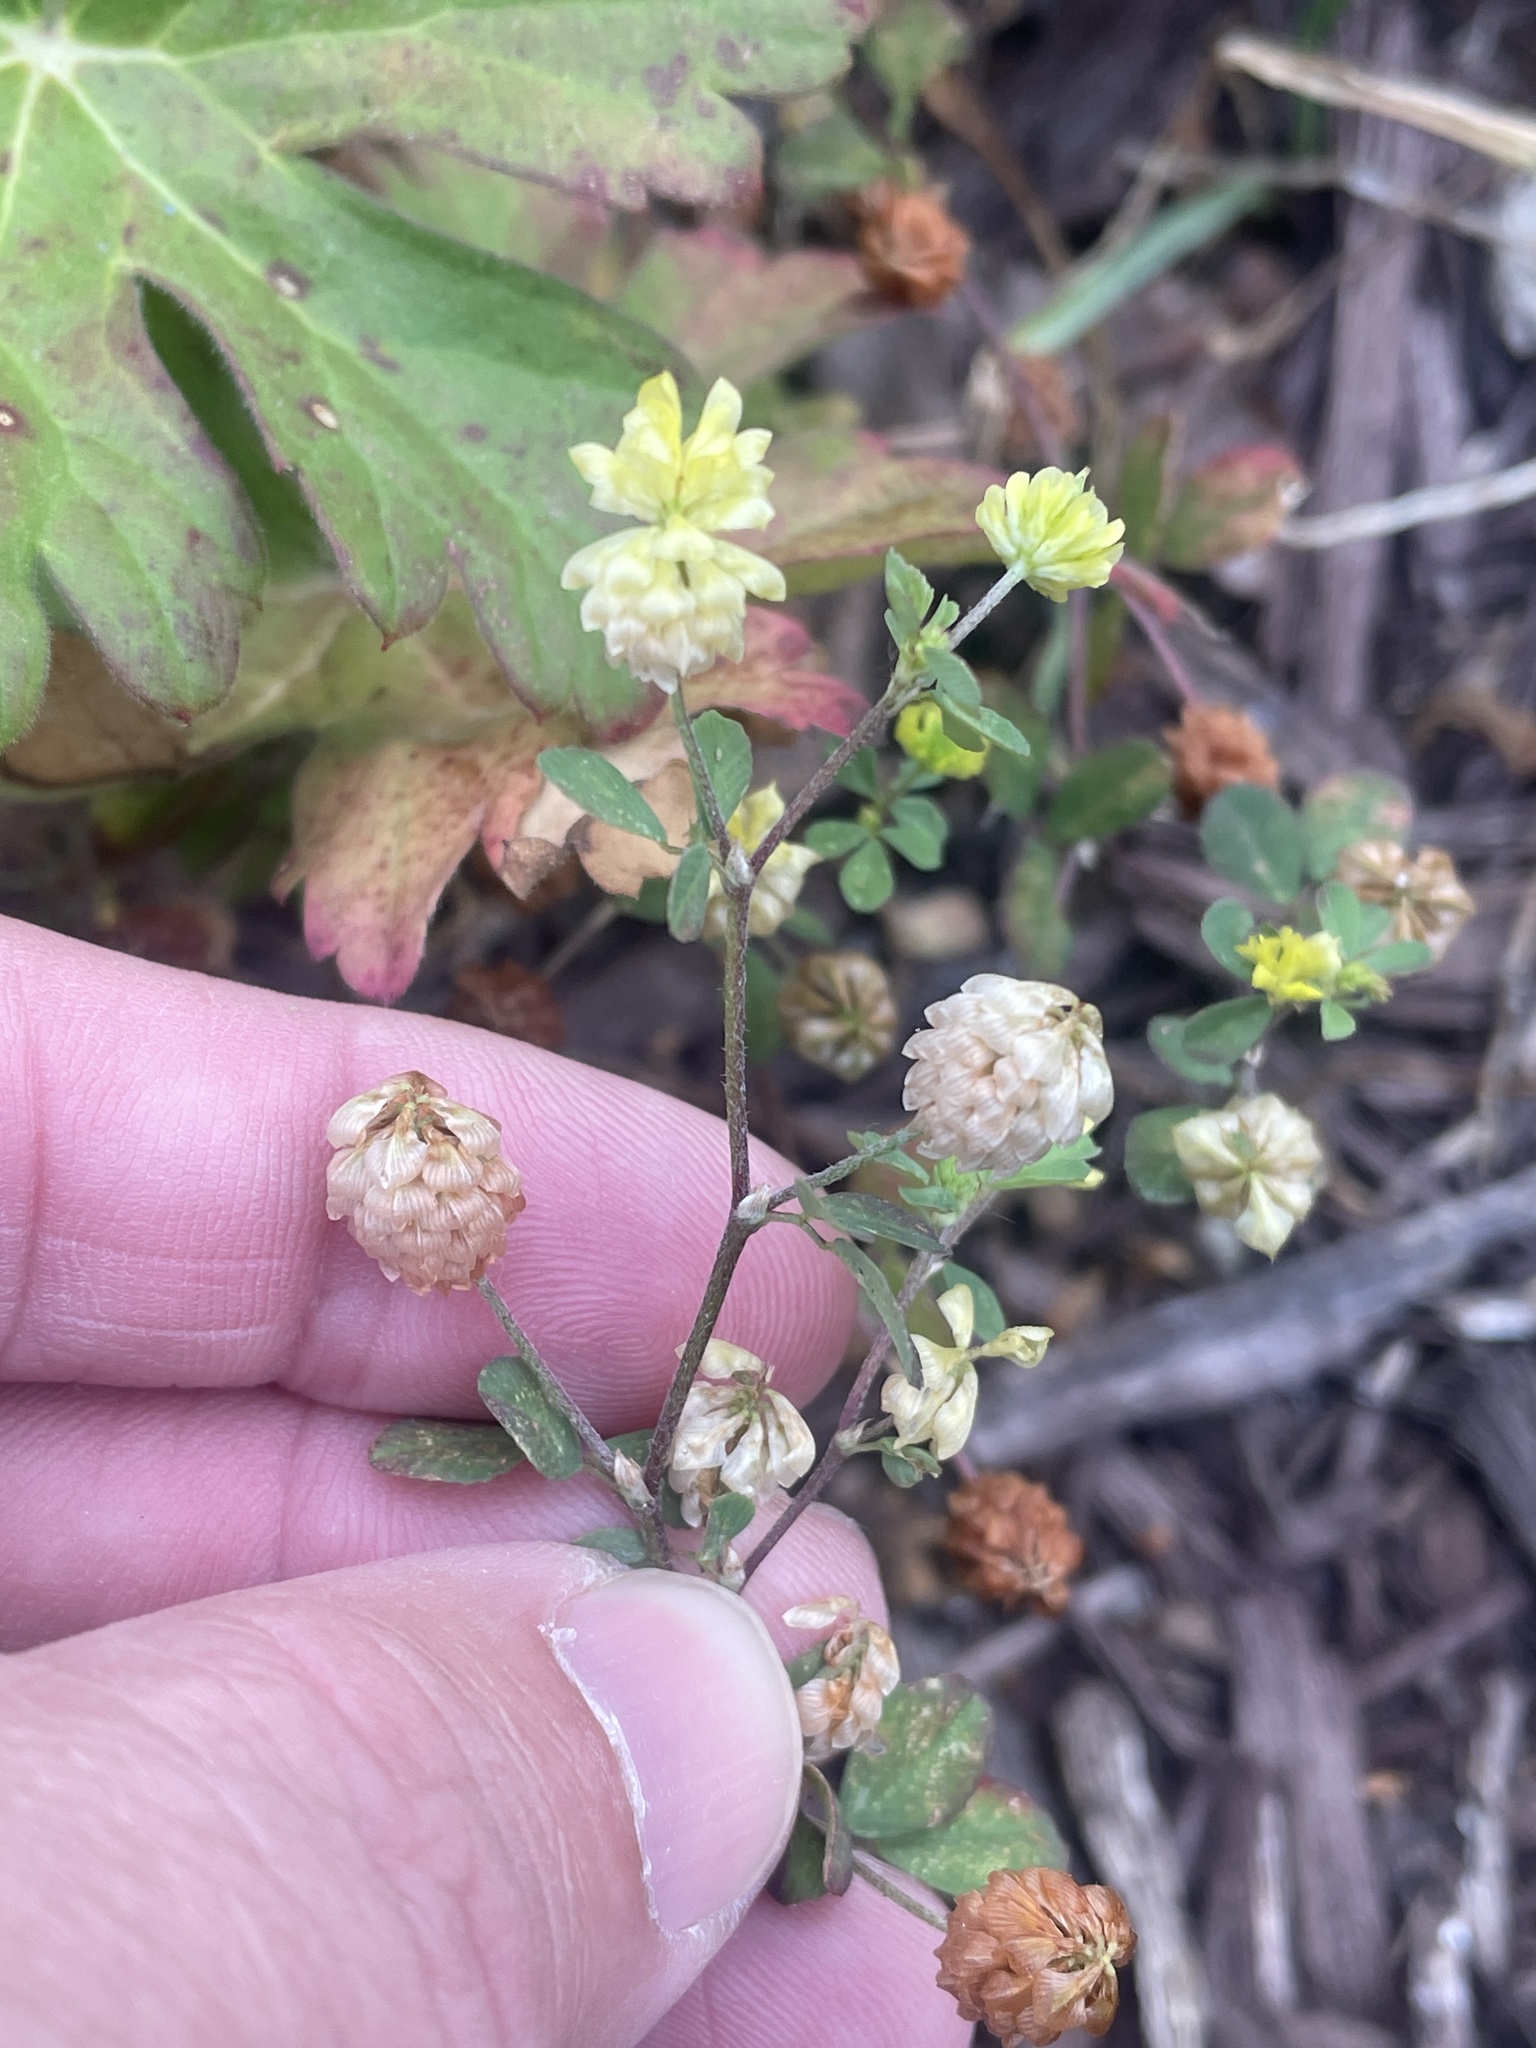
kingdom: Plantae
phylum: Tracheophyta
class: Magnoliopsida
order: Fabales
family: Fabaceae
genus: Trifolium
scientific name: Trifolium campestre
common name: Field clover
